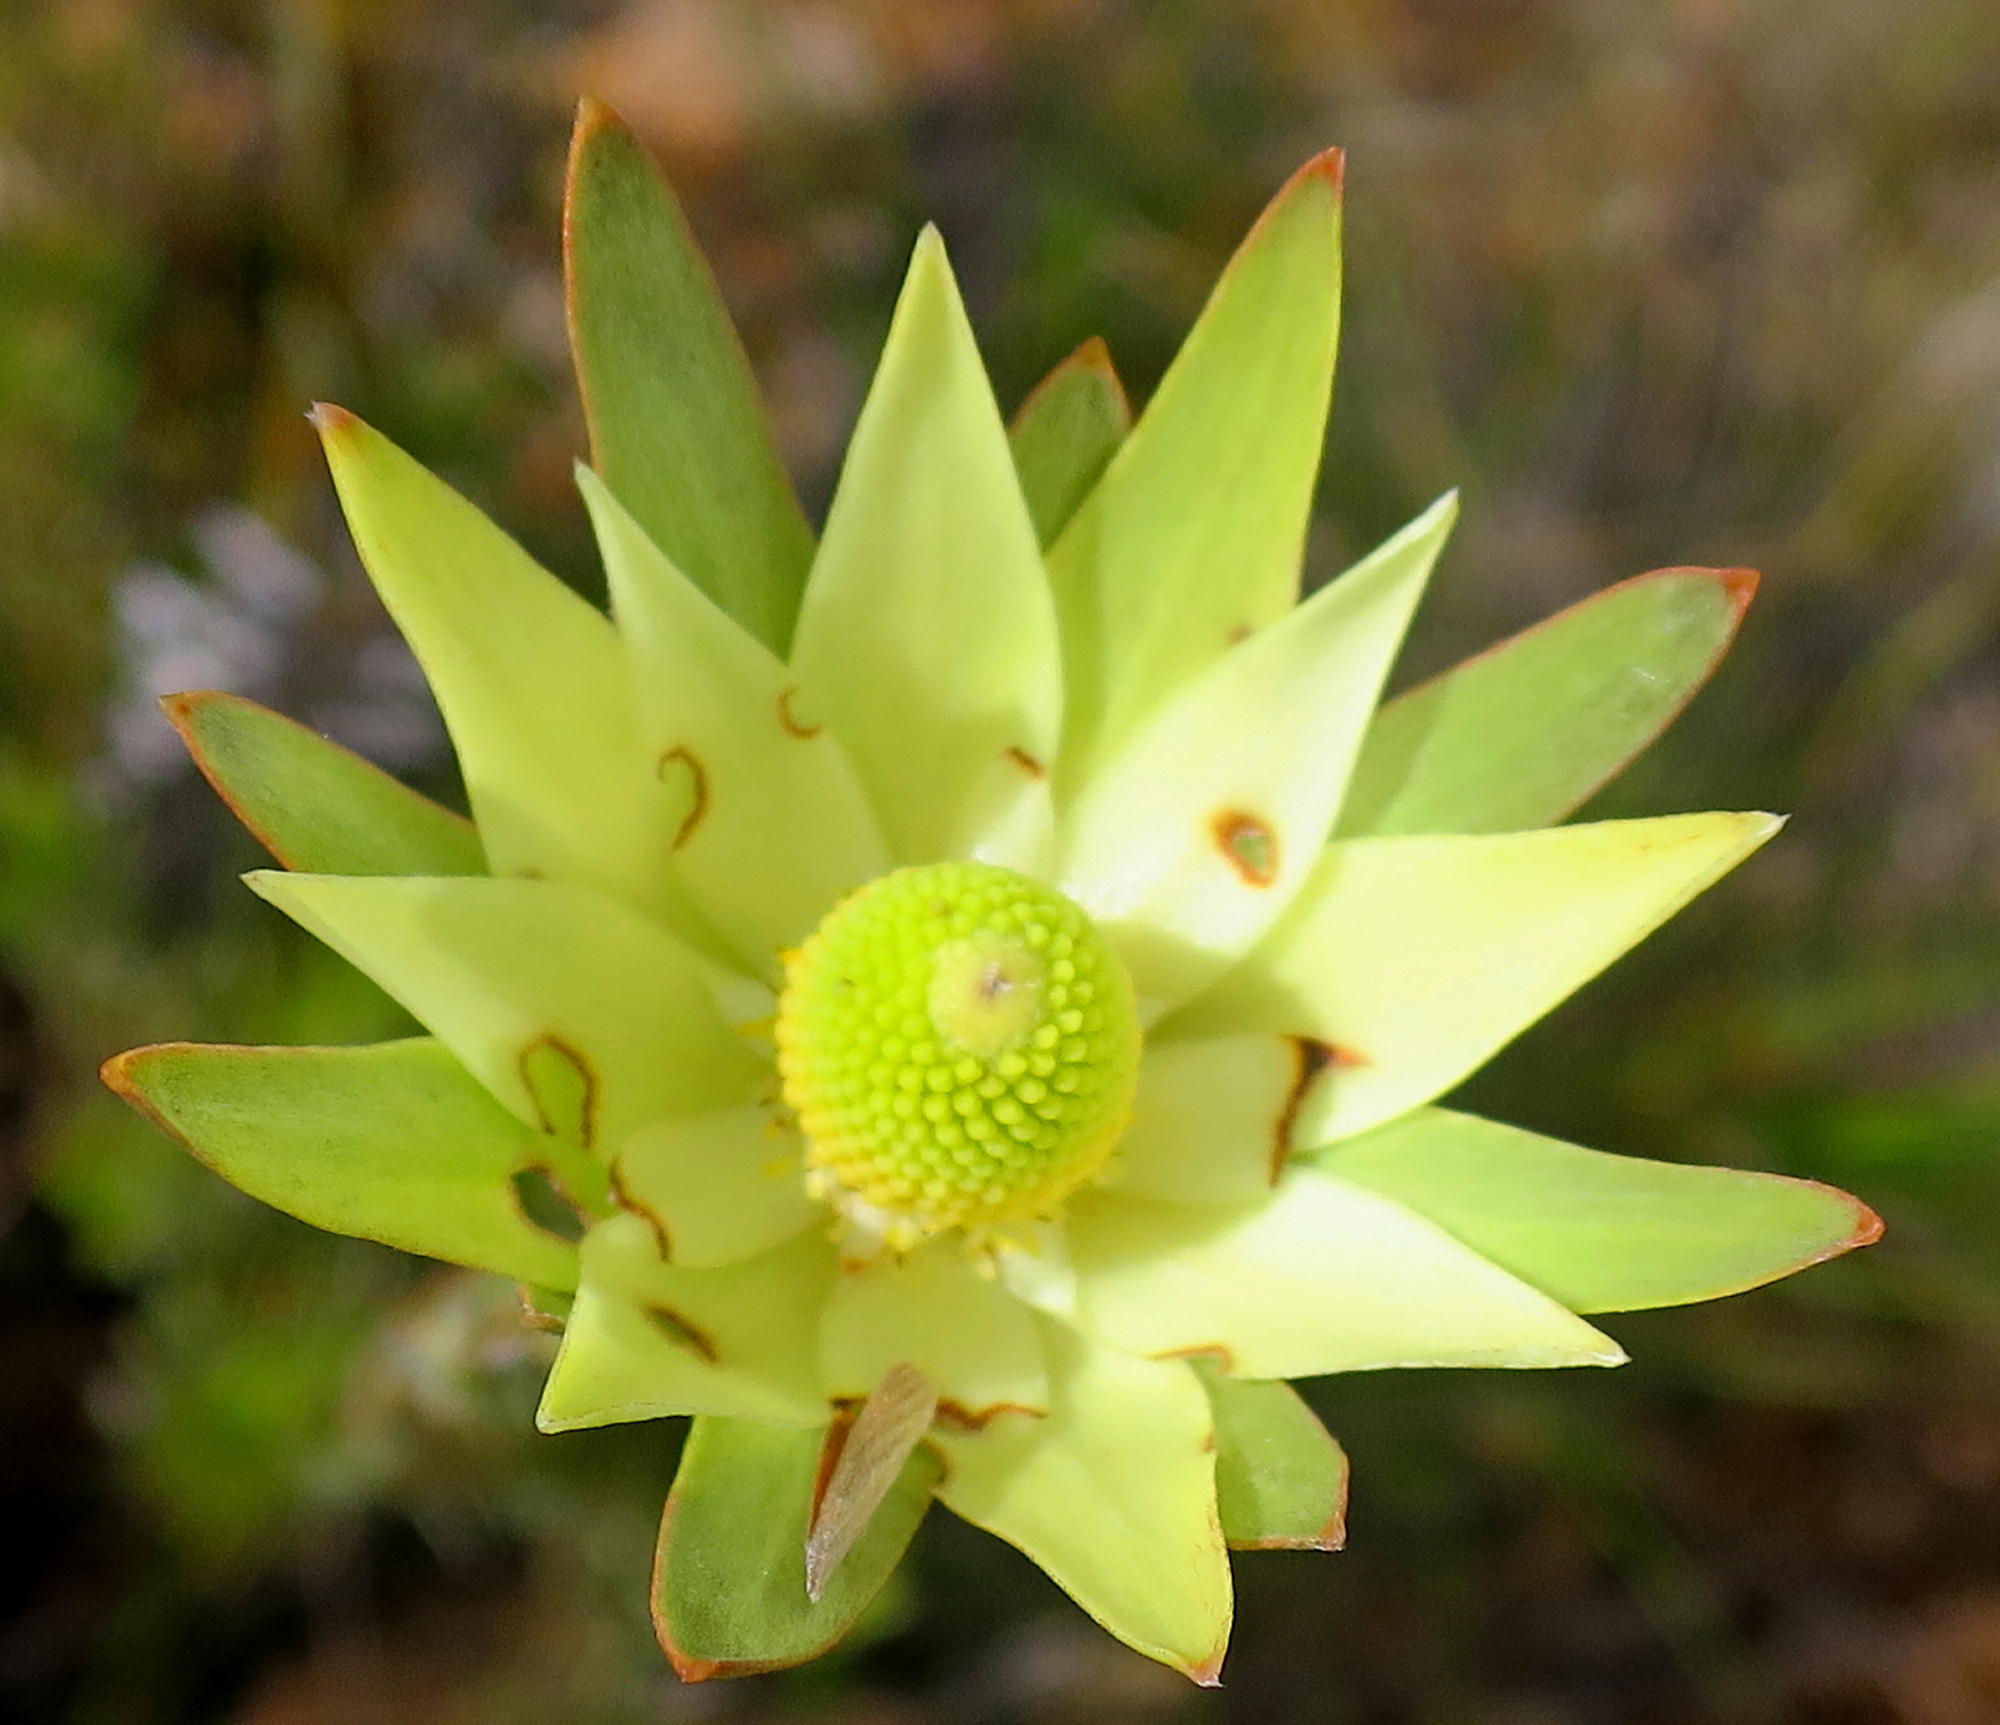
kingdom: Plantae
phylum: Tracheophyta
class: Magnoliopsida
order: Proteales
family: Proteaceae
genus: Leucadendron
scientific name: Leucadendron uliginosum
